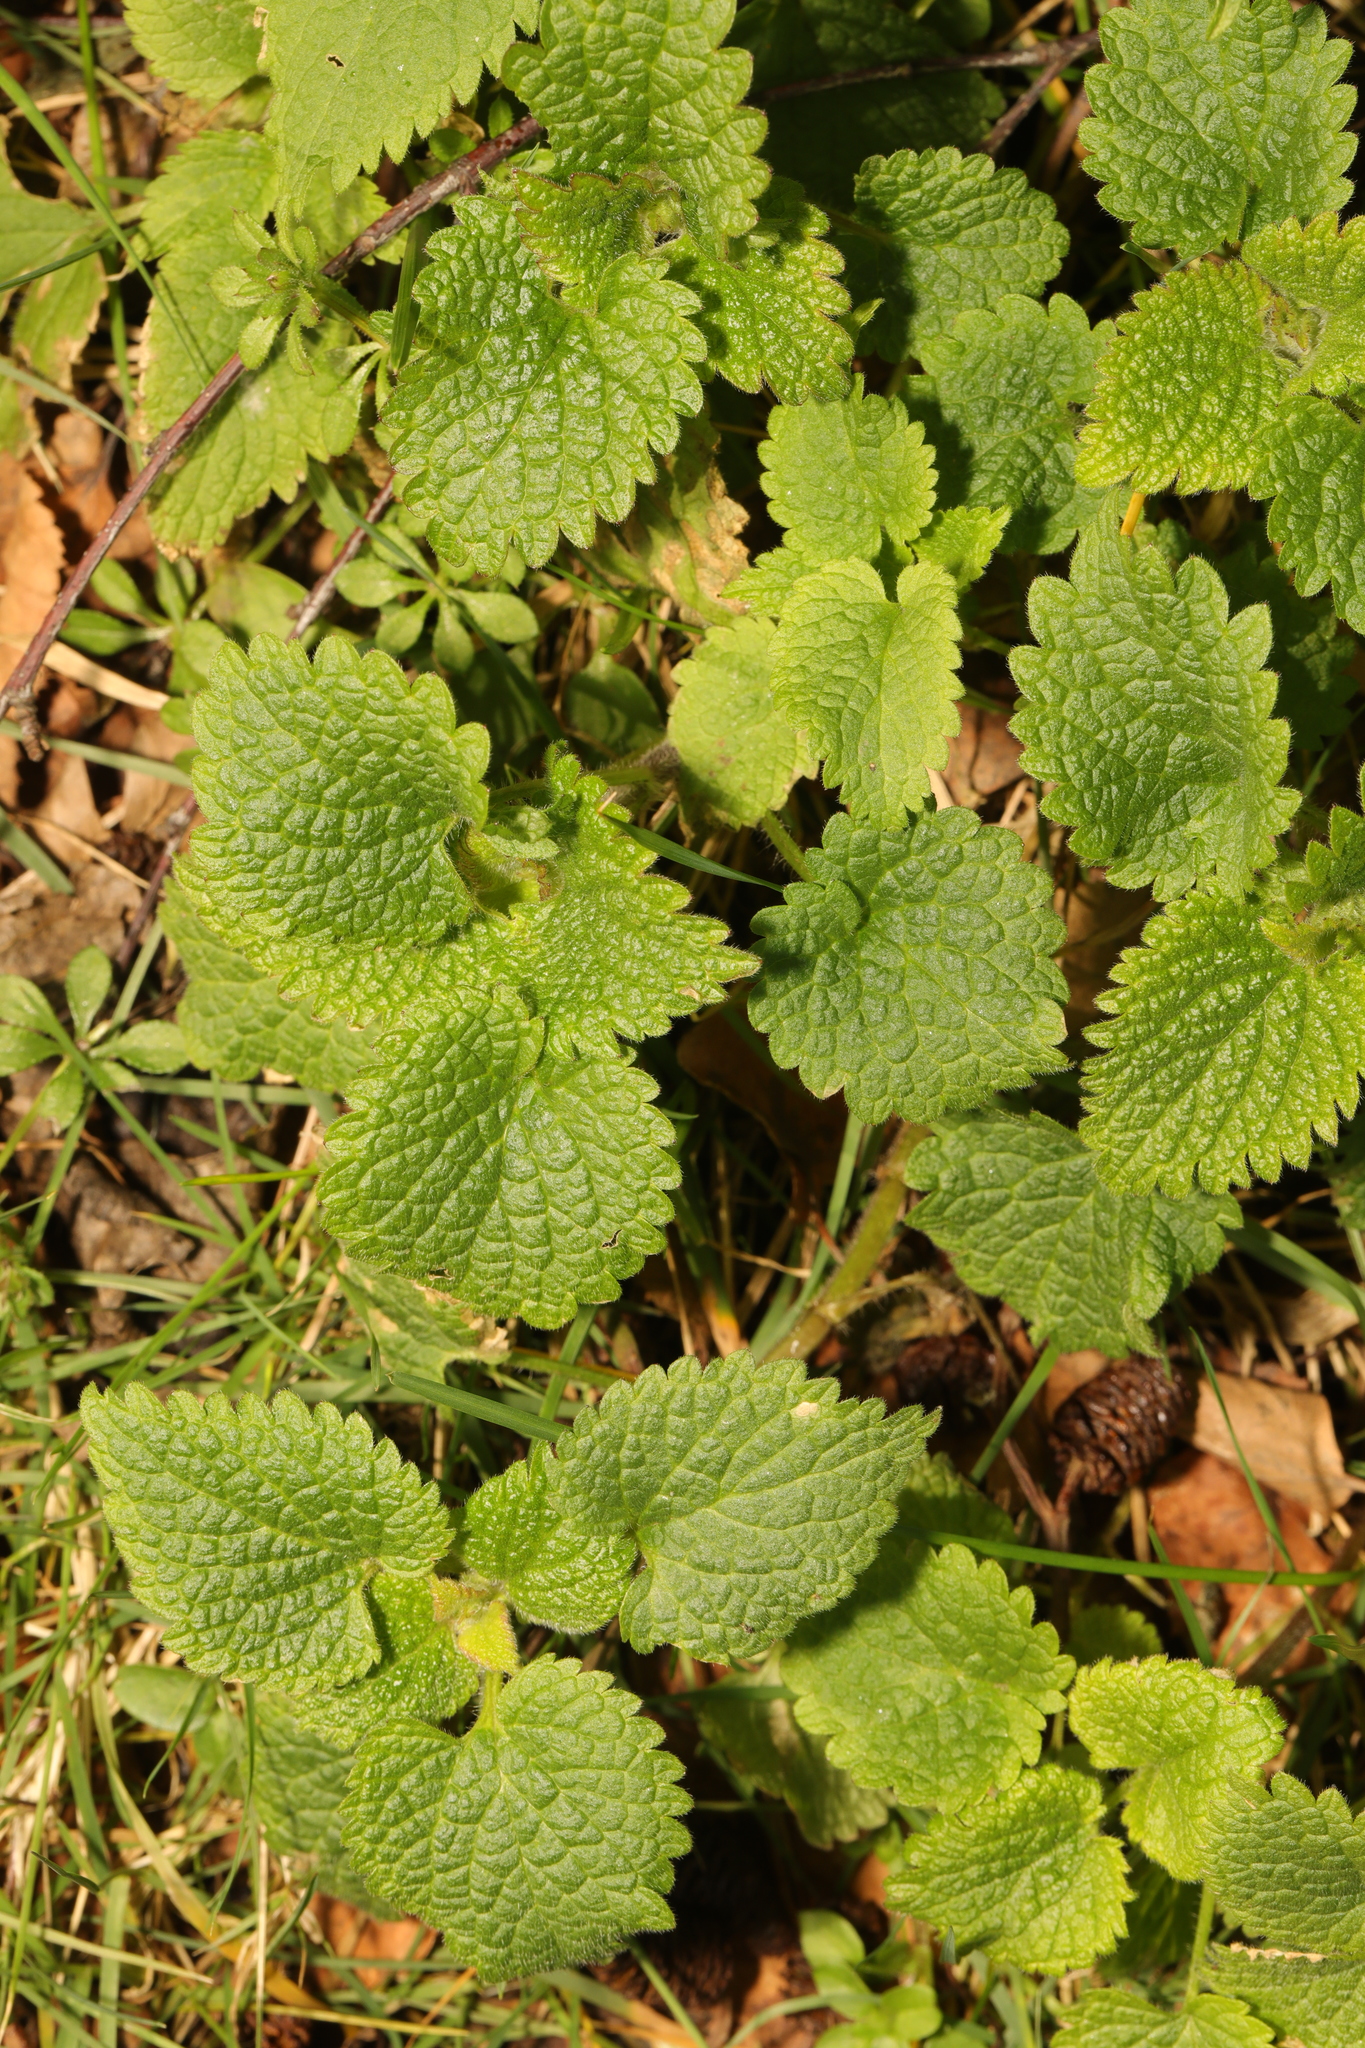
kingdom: Plantae
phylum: Tracheophyta
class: Magnoliopsida
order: Lamiales
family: Lamiaceae
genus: Lamium
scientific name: Lamium album
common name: White dead-nettle
